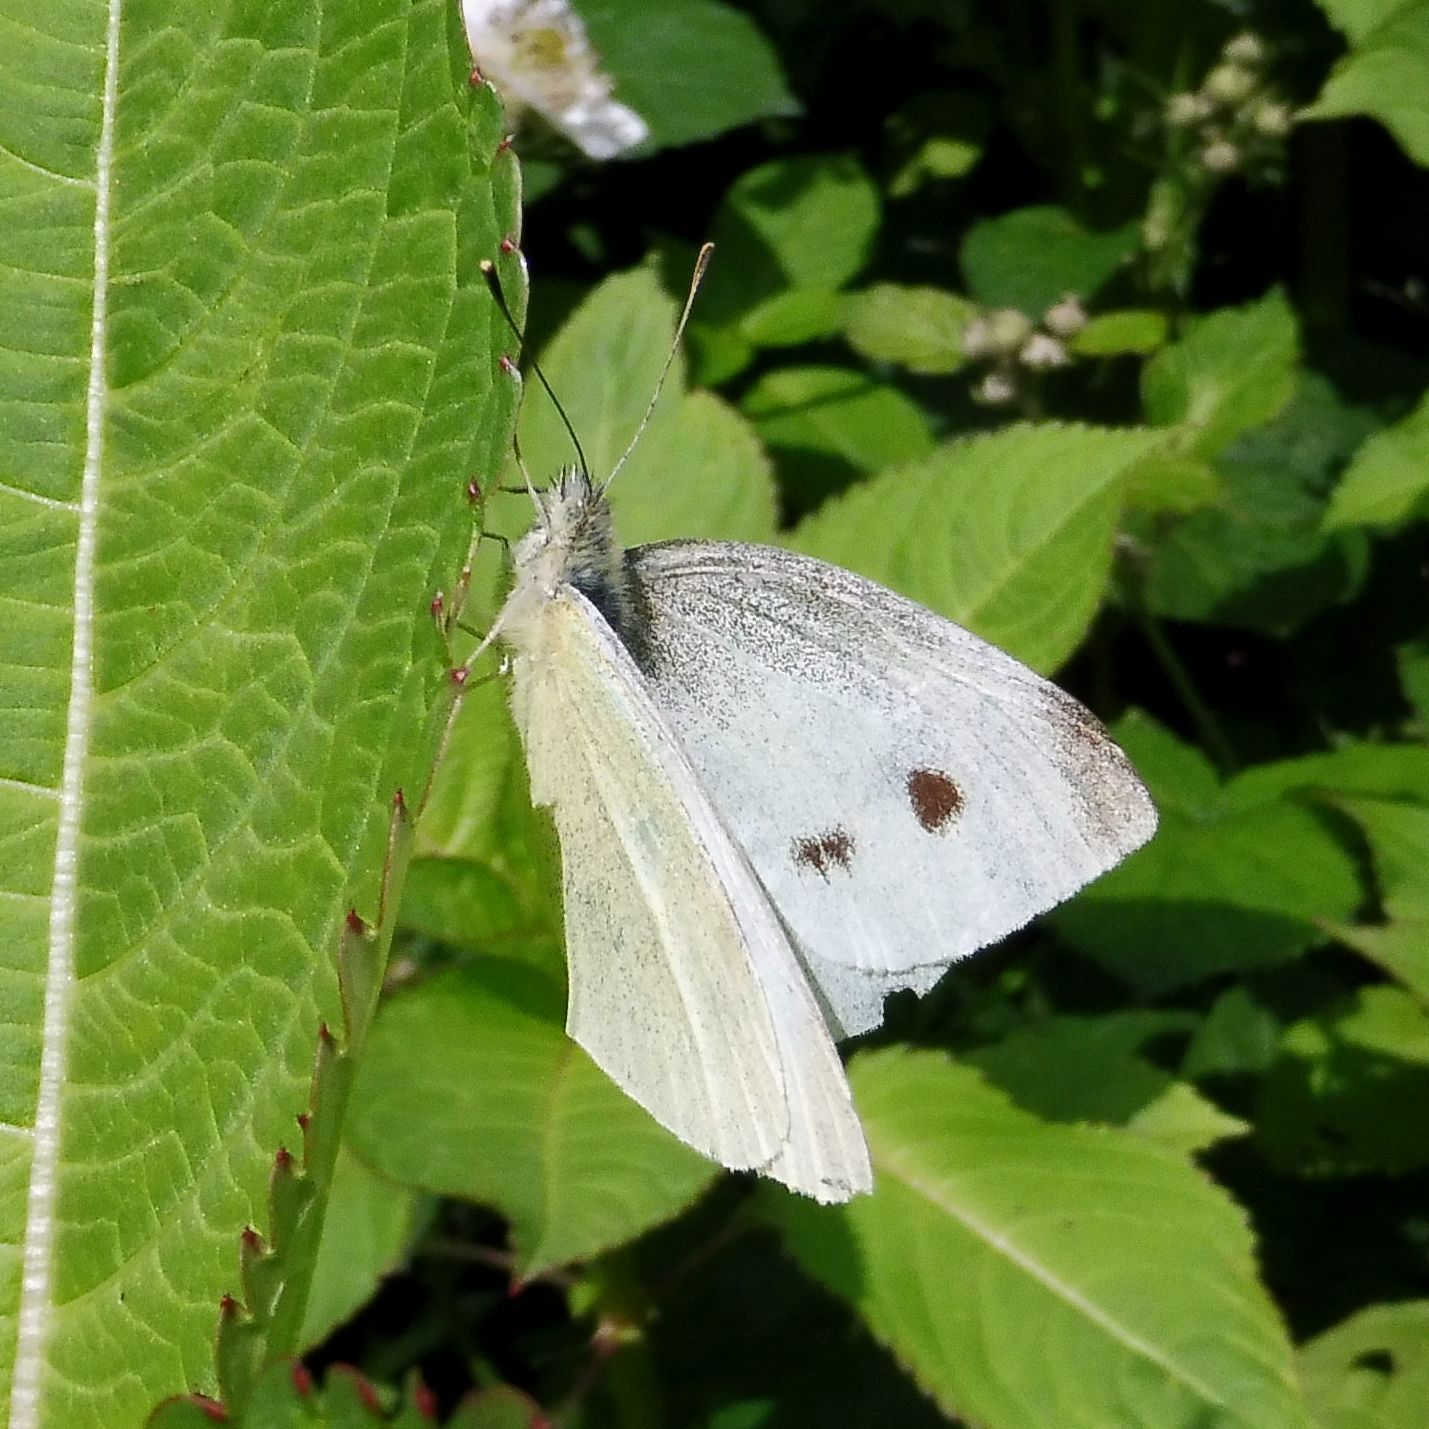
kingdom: Animalia
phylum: Arthropoda
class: Insecta
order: Lepidoptera
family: Pieridae
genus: Pieris
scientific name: Pieris rapae
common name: Small white
